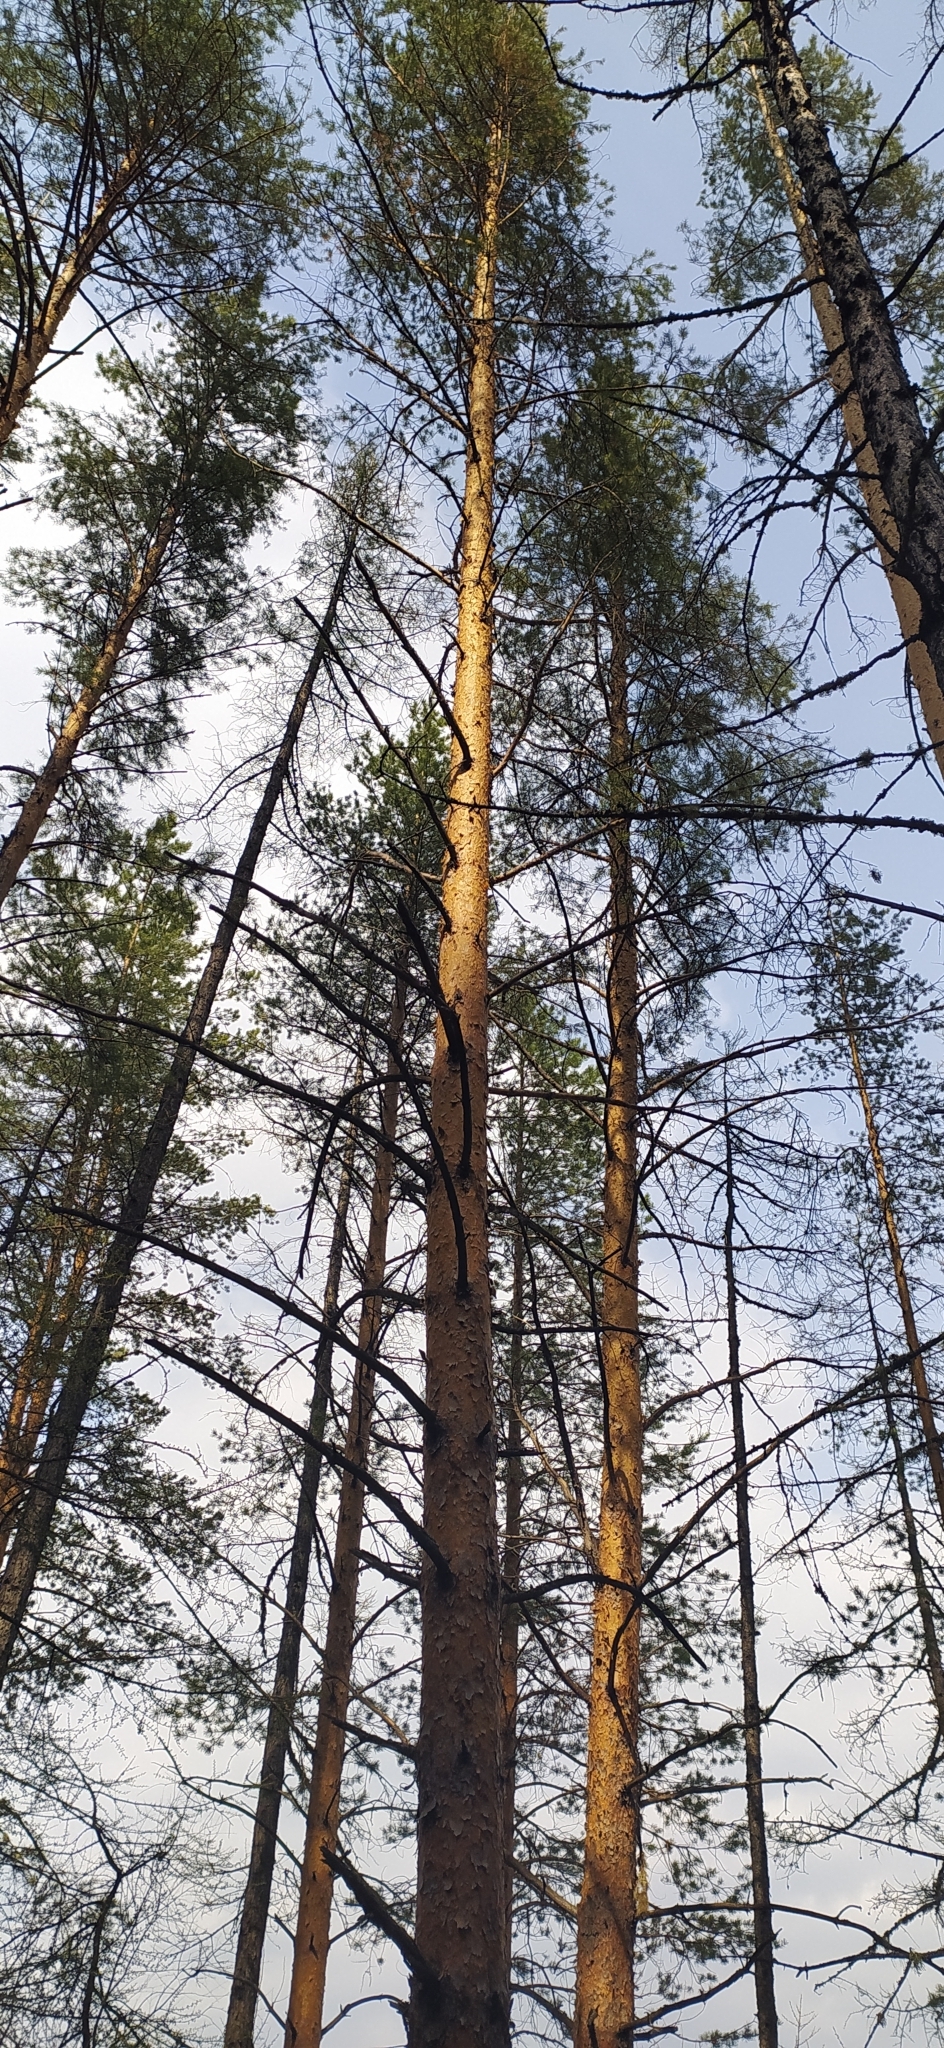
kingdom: Plantae
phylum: Tracheophyta
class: Pinopsida
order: Pinales
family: Pinaceae
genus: Pinus
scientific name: Pinus sylvestris
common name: Scots pine
